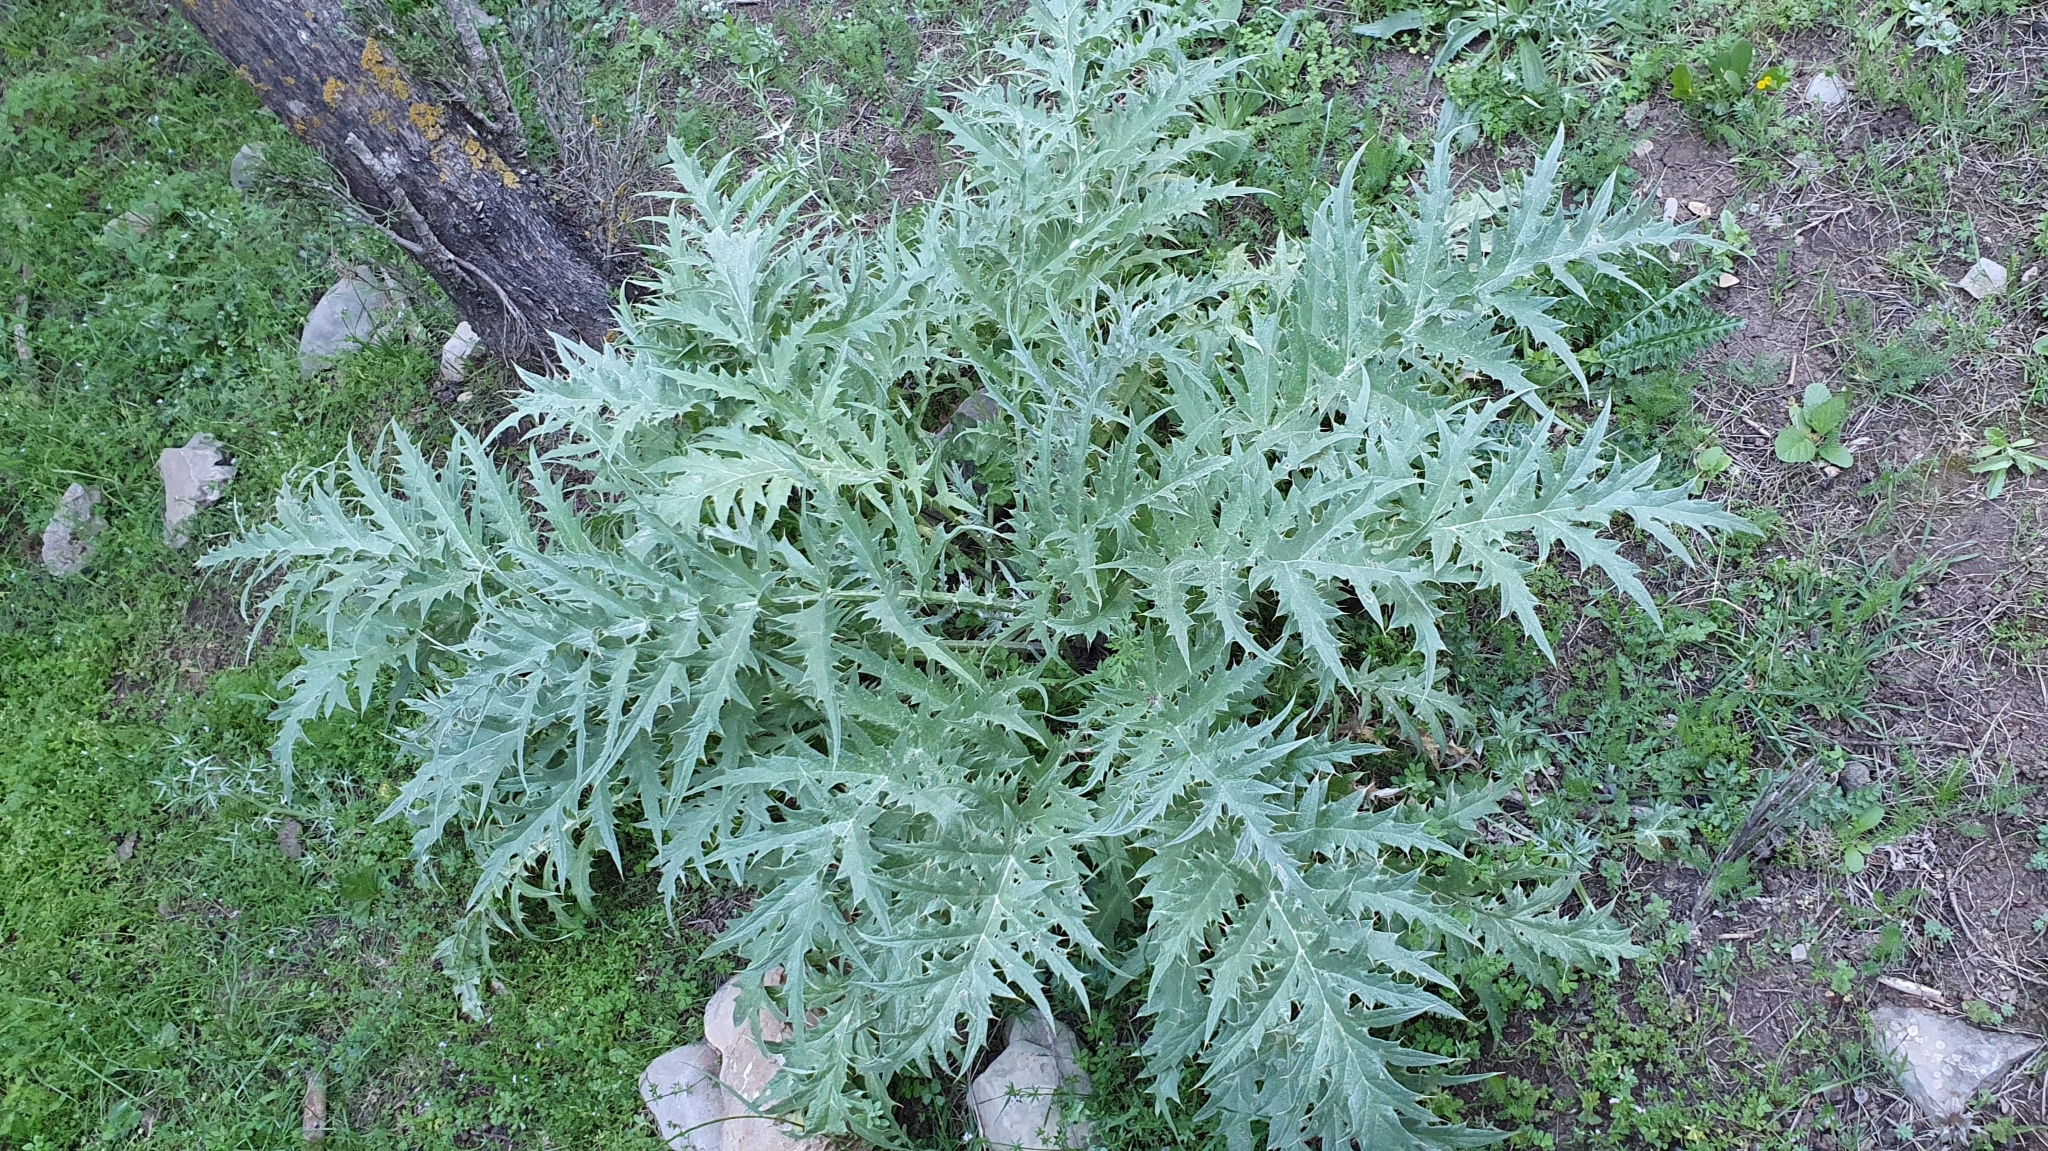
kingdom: Plantae
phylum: Tracheophyta
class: Magnoliopsida
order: Asterales
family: Asteraceae
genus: Cynara
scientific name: Cynara cardunculus
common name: Globe artichoke
